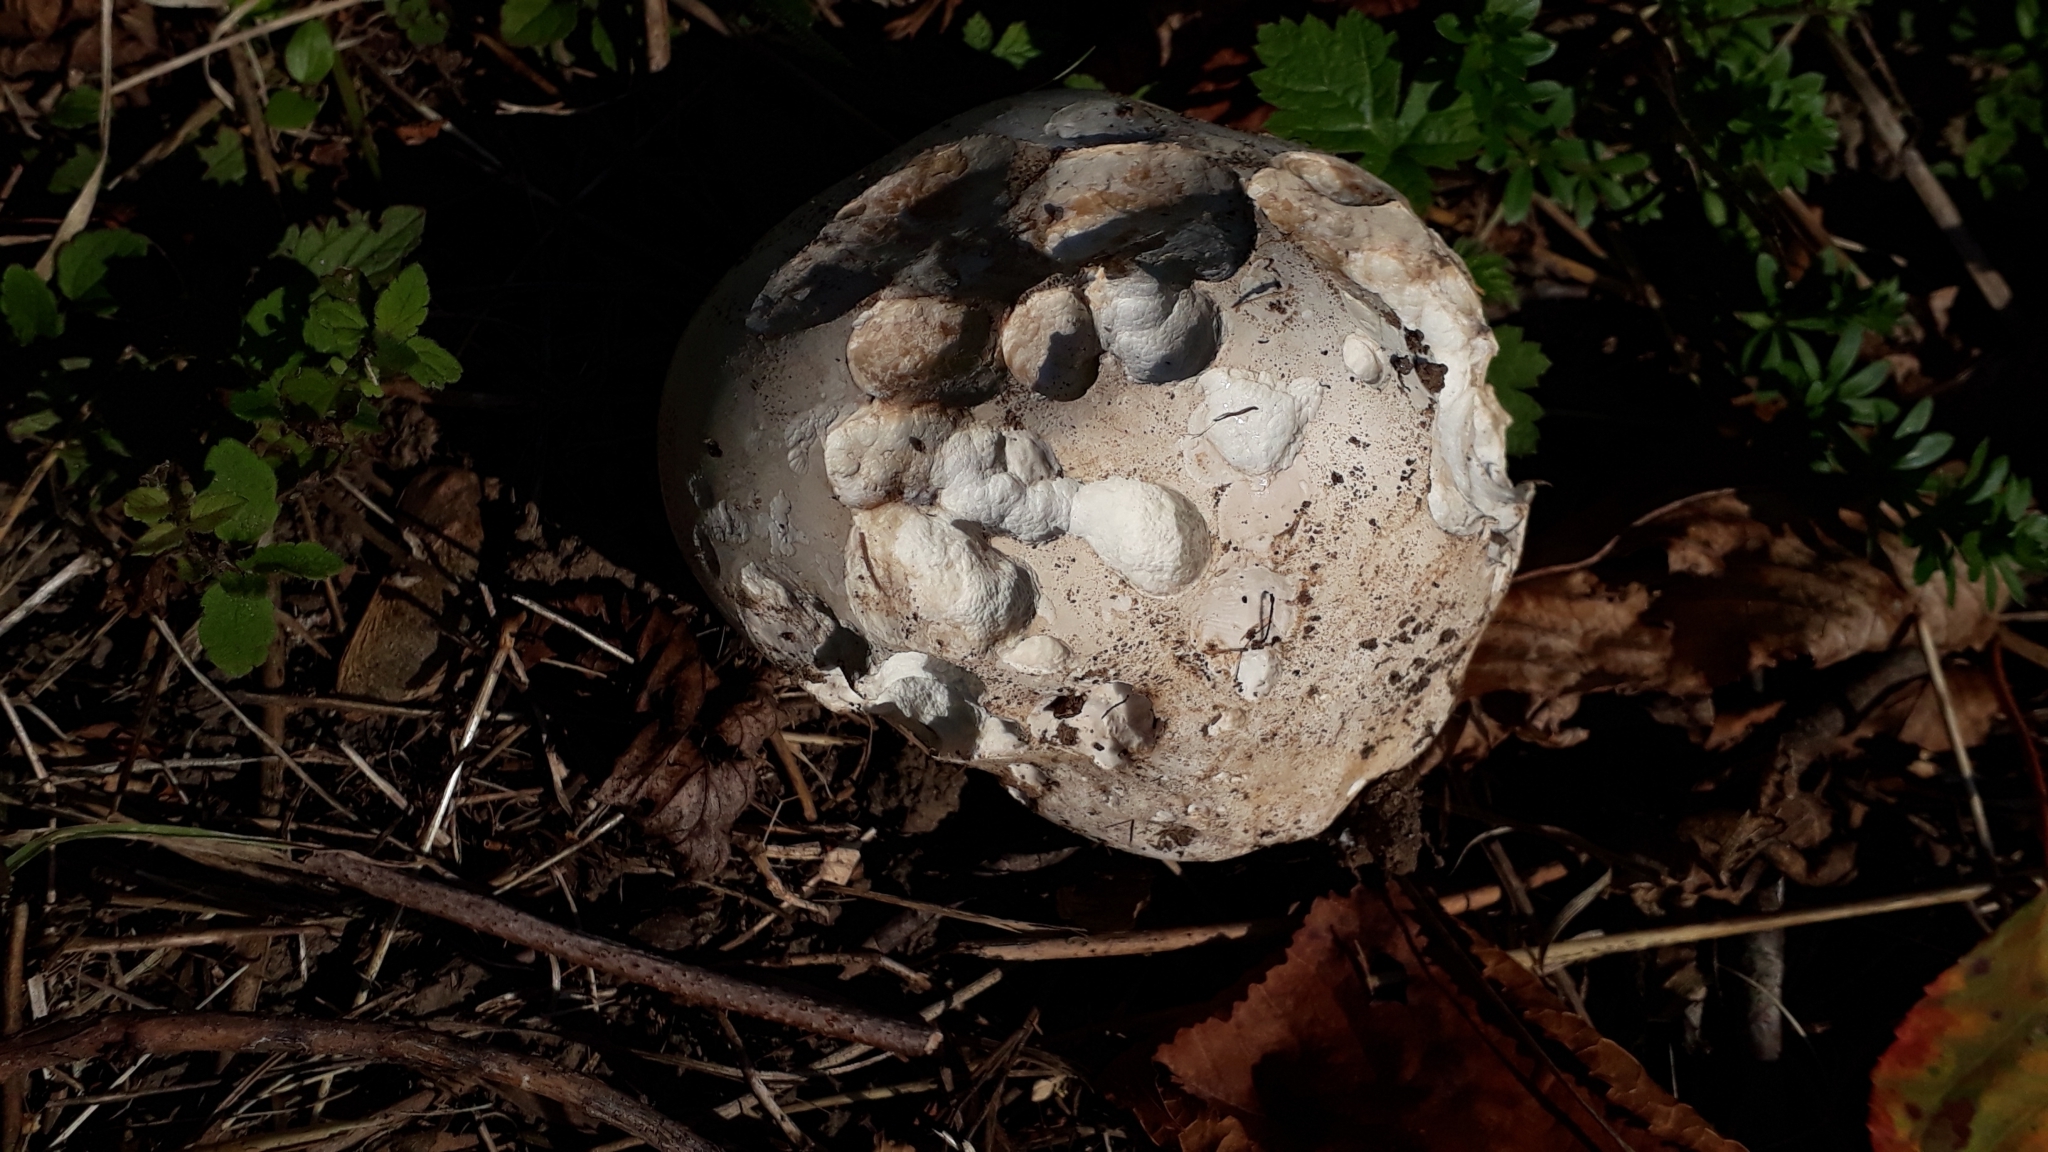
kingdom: Fungi
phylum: Basidiomycota
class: Agaricomycetes
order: Agaricales
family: Lycoperdaceae
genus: Calvatia
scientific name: Calvatia gigantea
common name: Giant puffball
